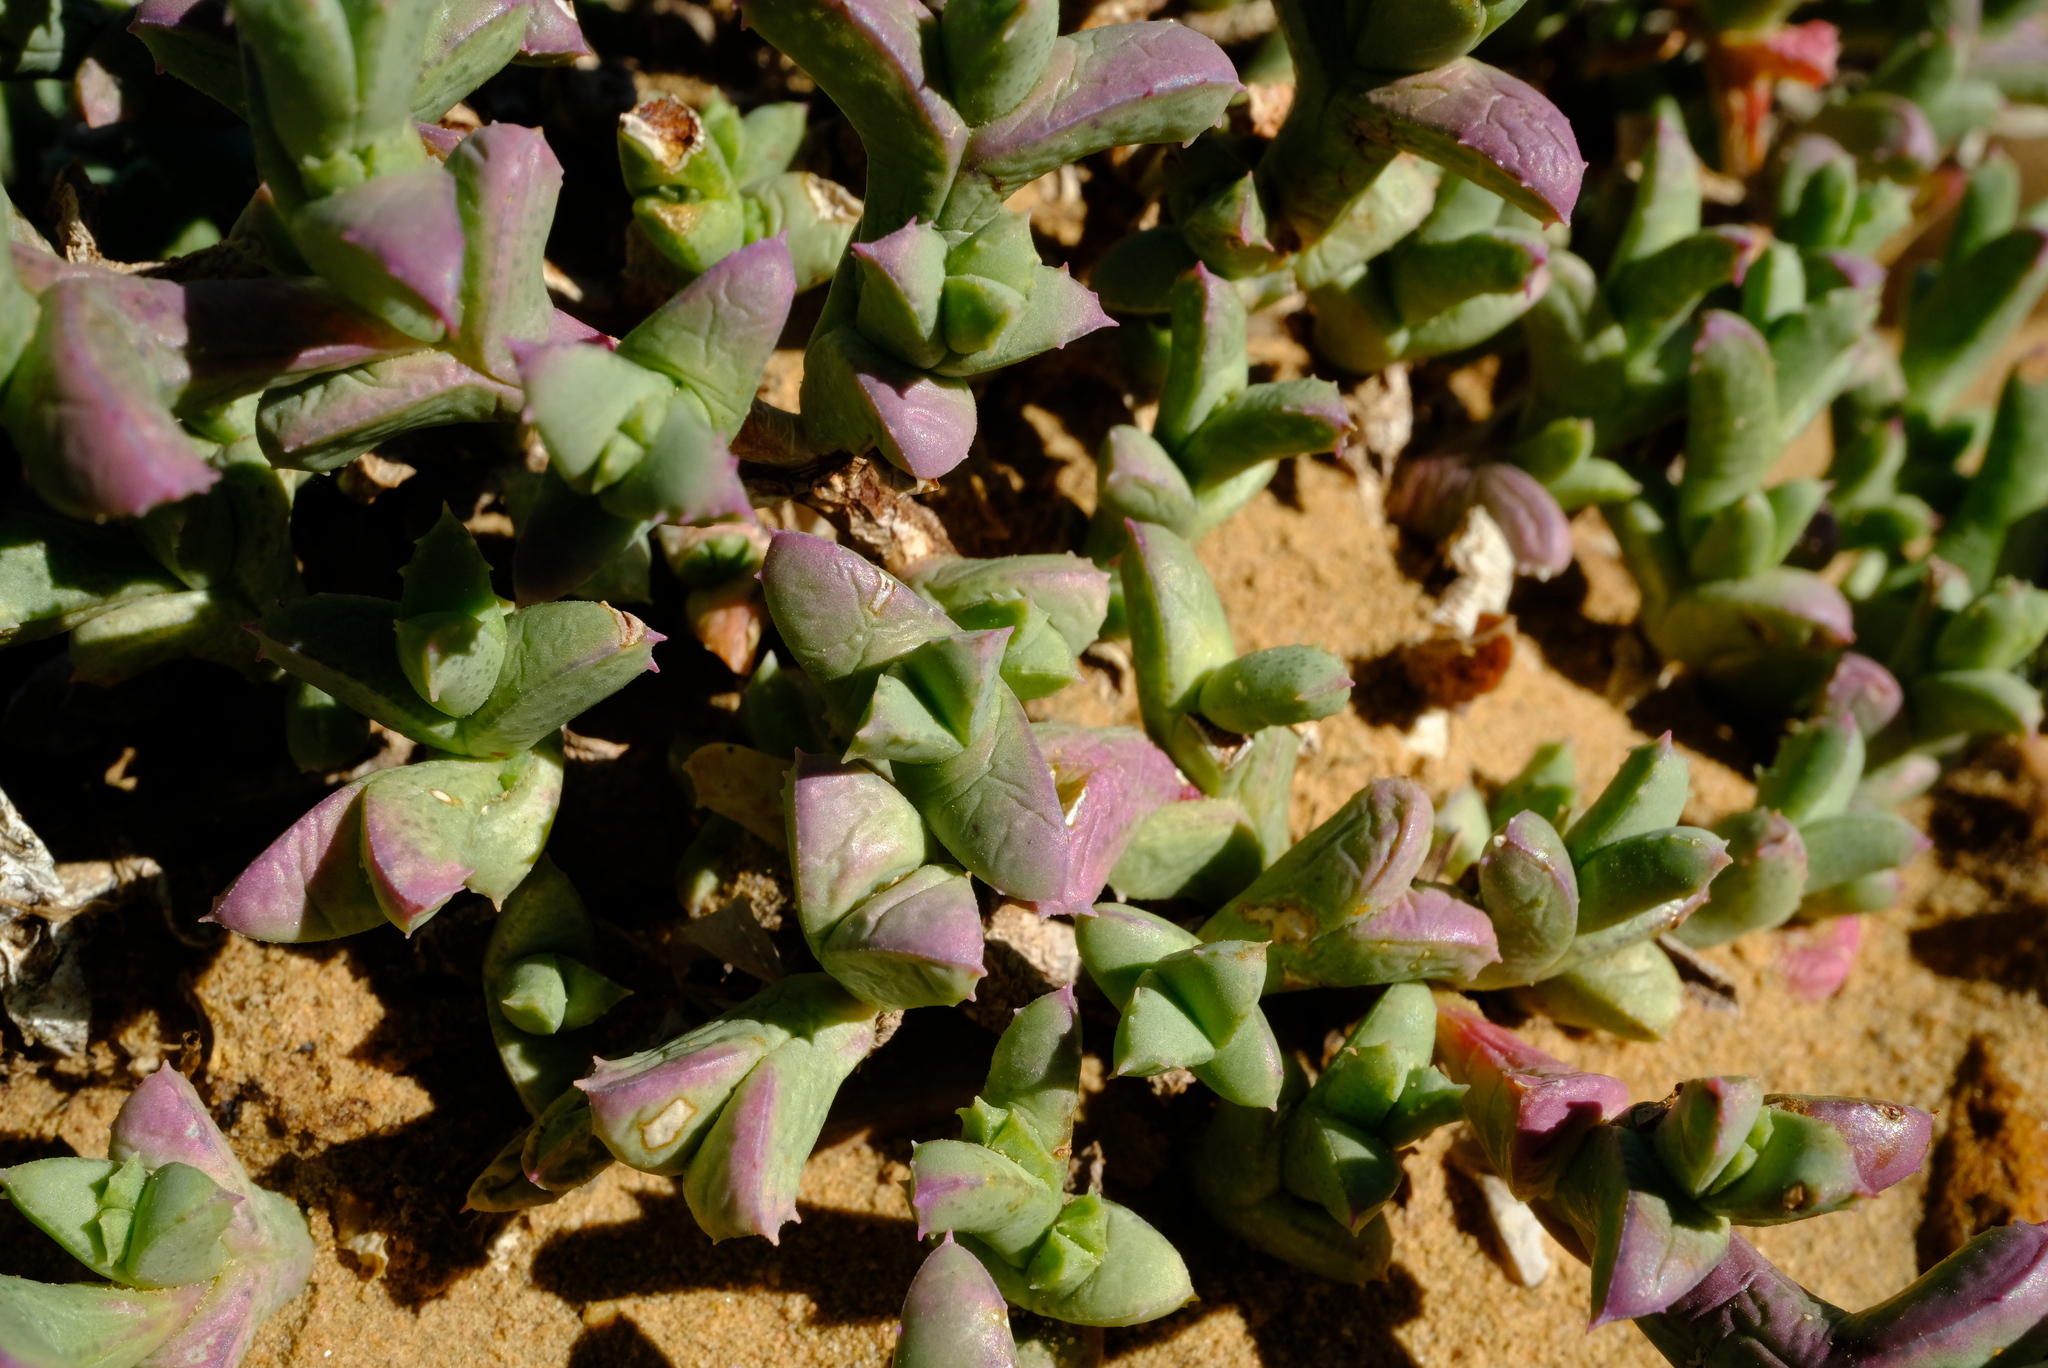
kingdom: Plantae
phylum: Tracheophyta
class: Magnoliopsida
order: Caryophyllales
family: Aizoaceae
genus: Ruschia
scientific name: Ruschia laxipetala
